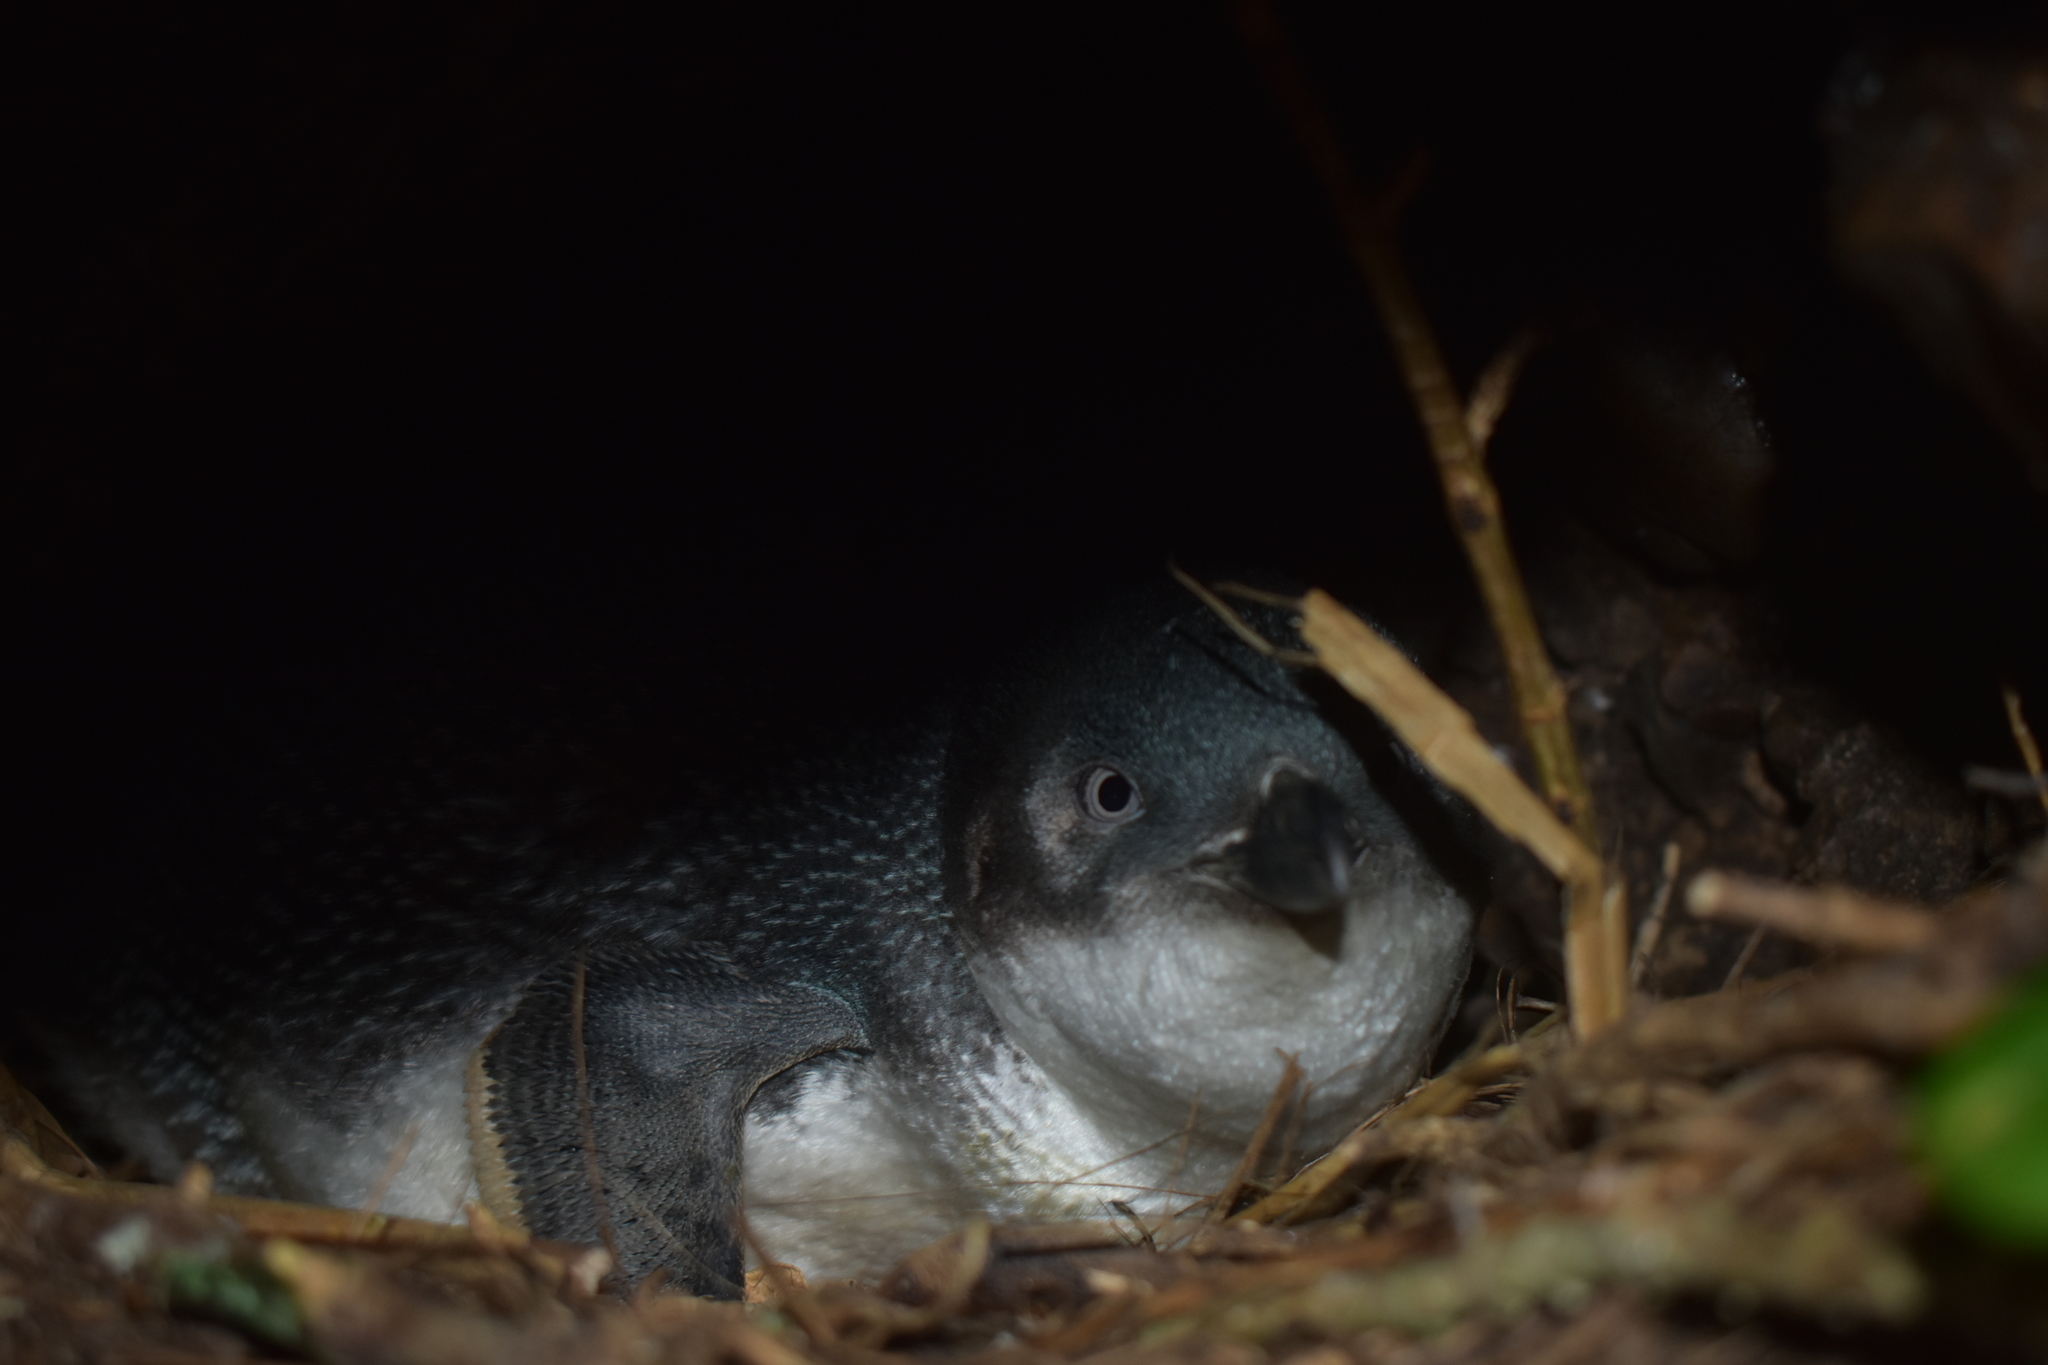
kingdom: Animalia
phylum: Chordata
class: Aves
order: Sphenisciformes
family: Spheniscidae
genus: Eudyptula
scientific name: Eudyptula minor
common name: Little penguin
